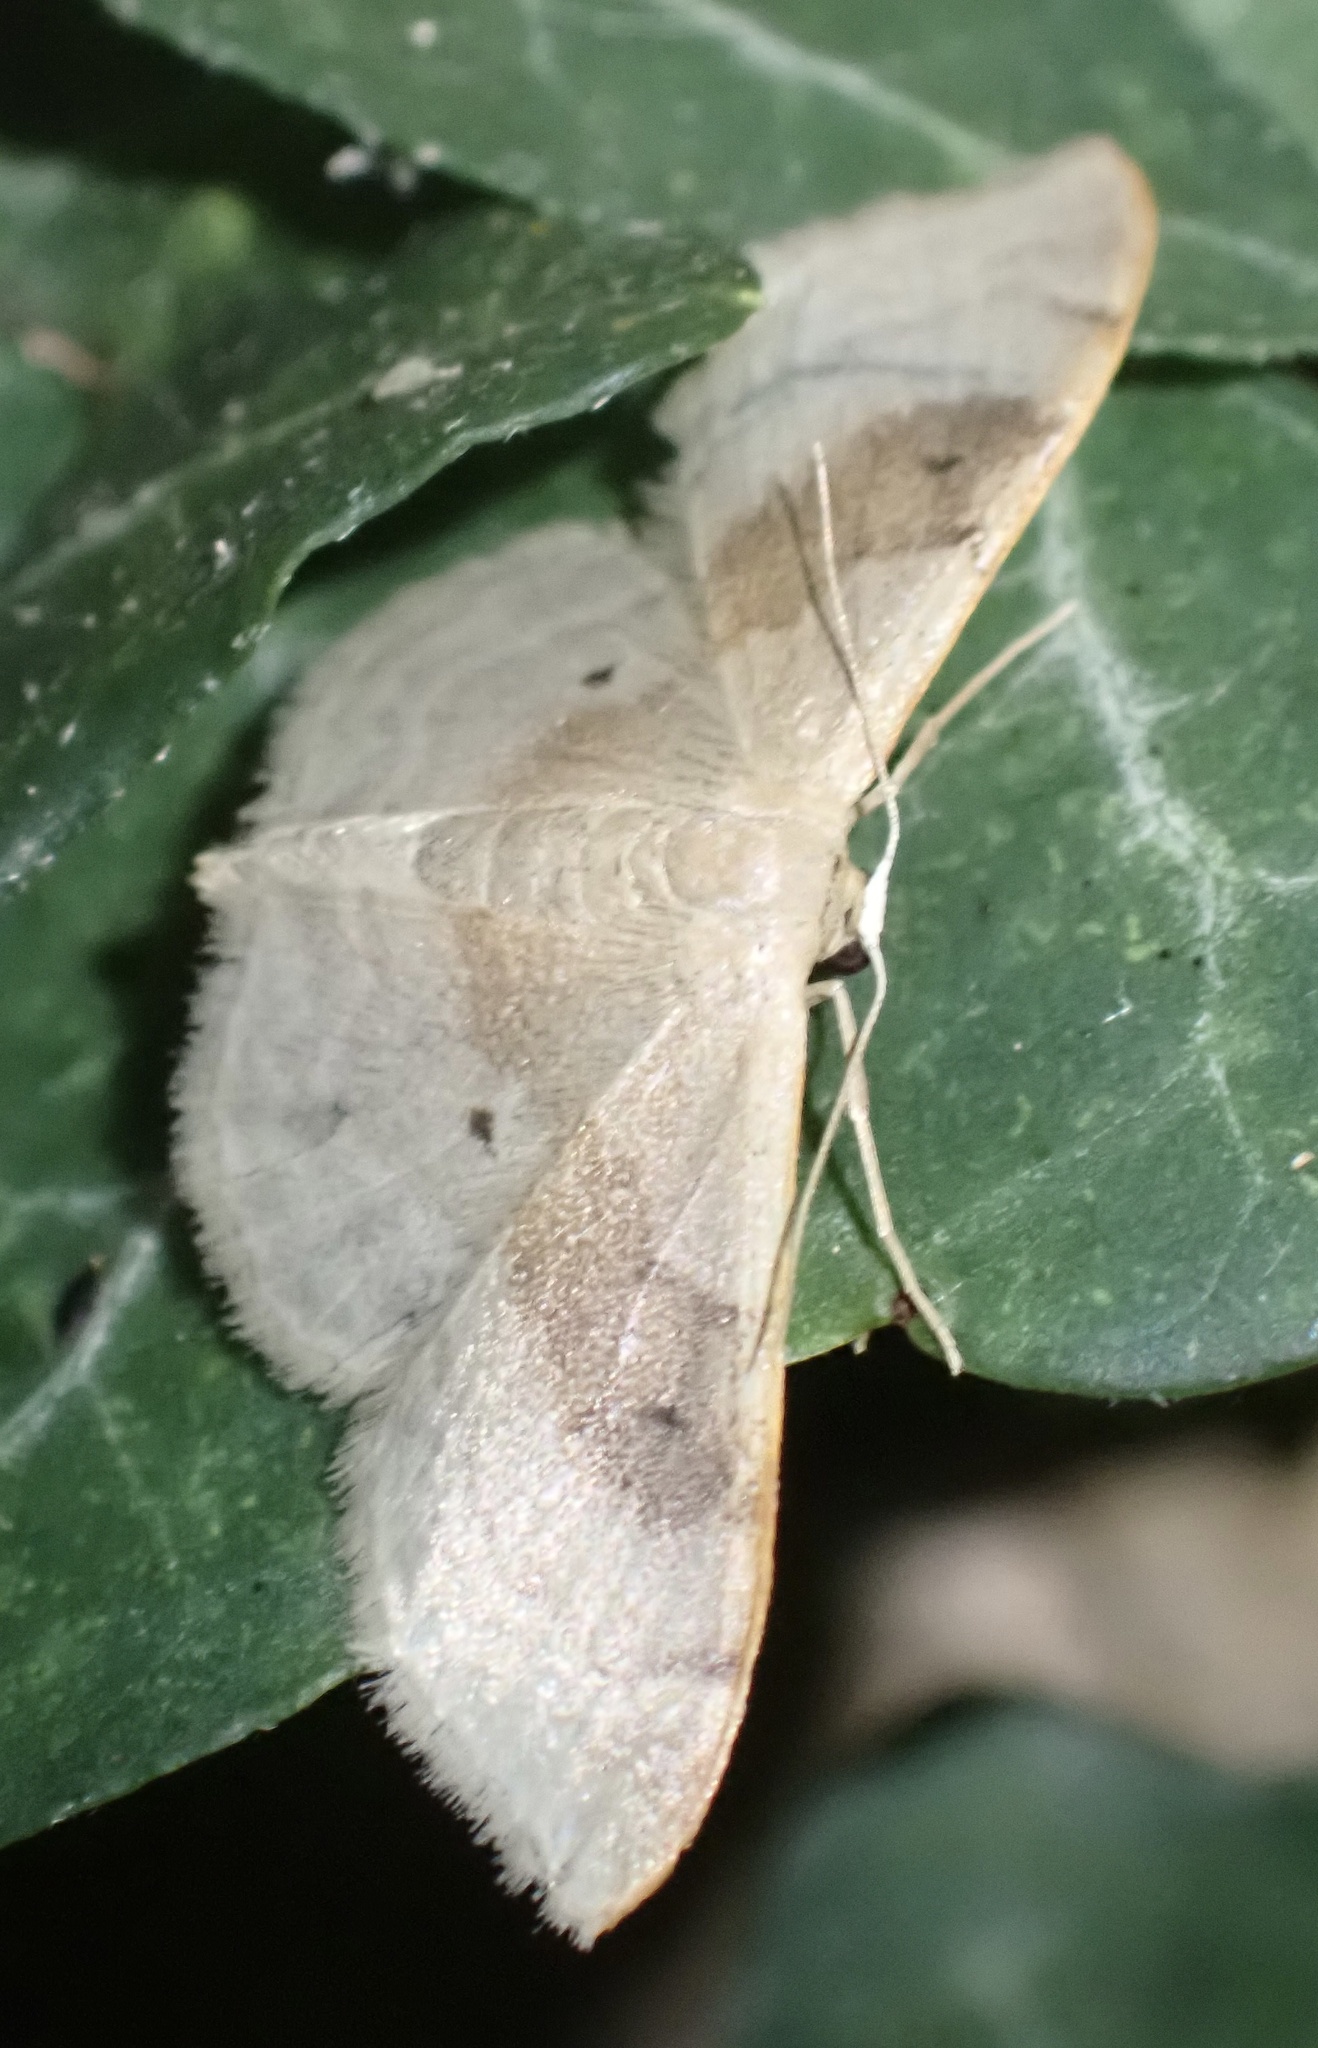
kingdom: Animalia
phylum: Arthropoda
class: Insecta
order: Lepidoptera
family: Geometridae
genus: Idaea
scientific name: Idaea degeneraria
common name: Portland ribbon wave
